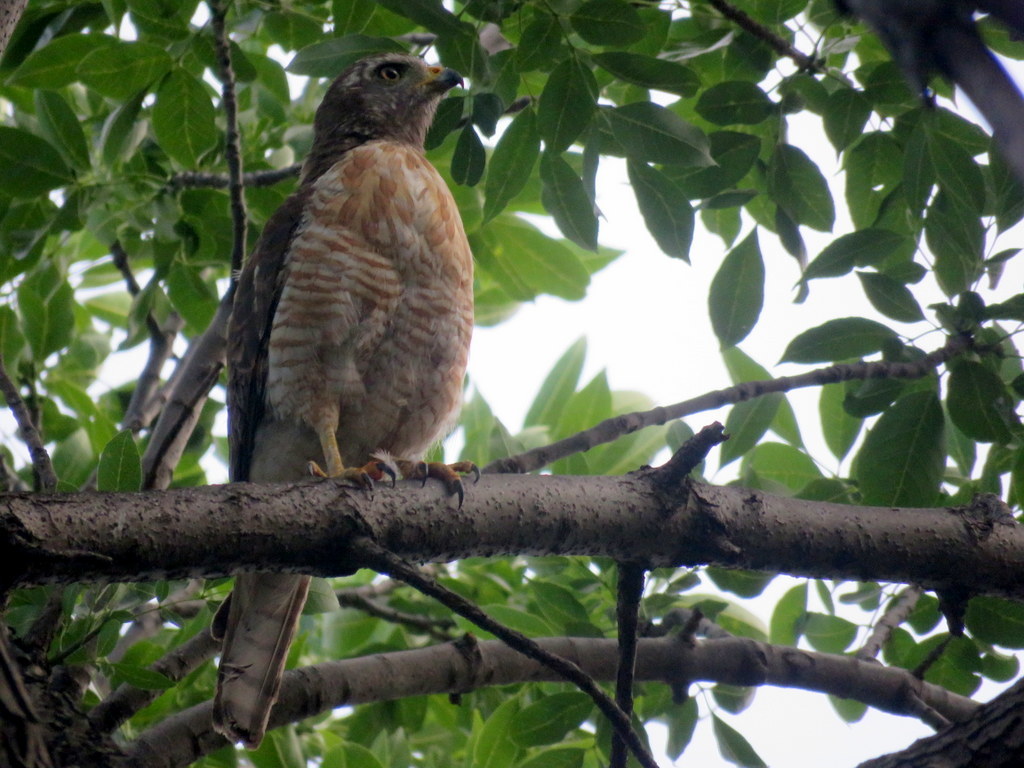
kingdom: Animalia
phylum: Chordata
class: Aves
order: Accipitriformes
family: Accipitridae
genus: Rupornis
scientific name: Rupornis magnirostris
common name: Roadside hawk
